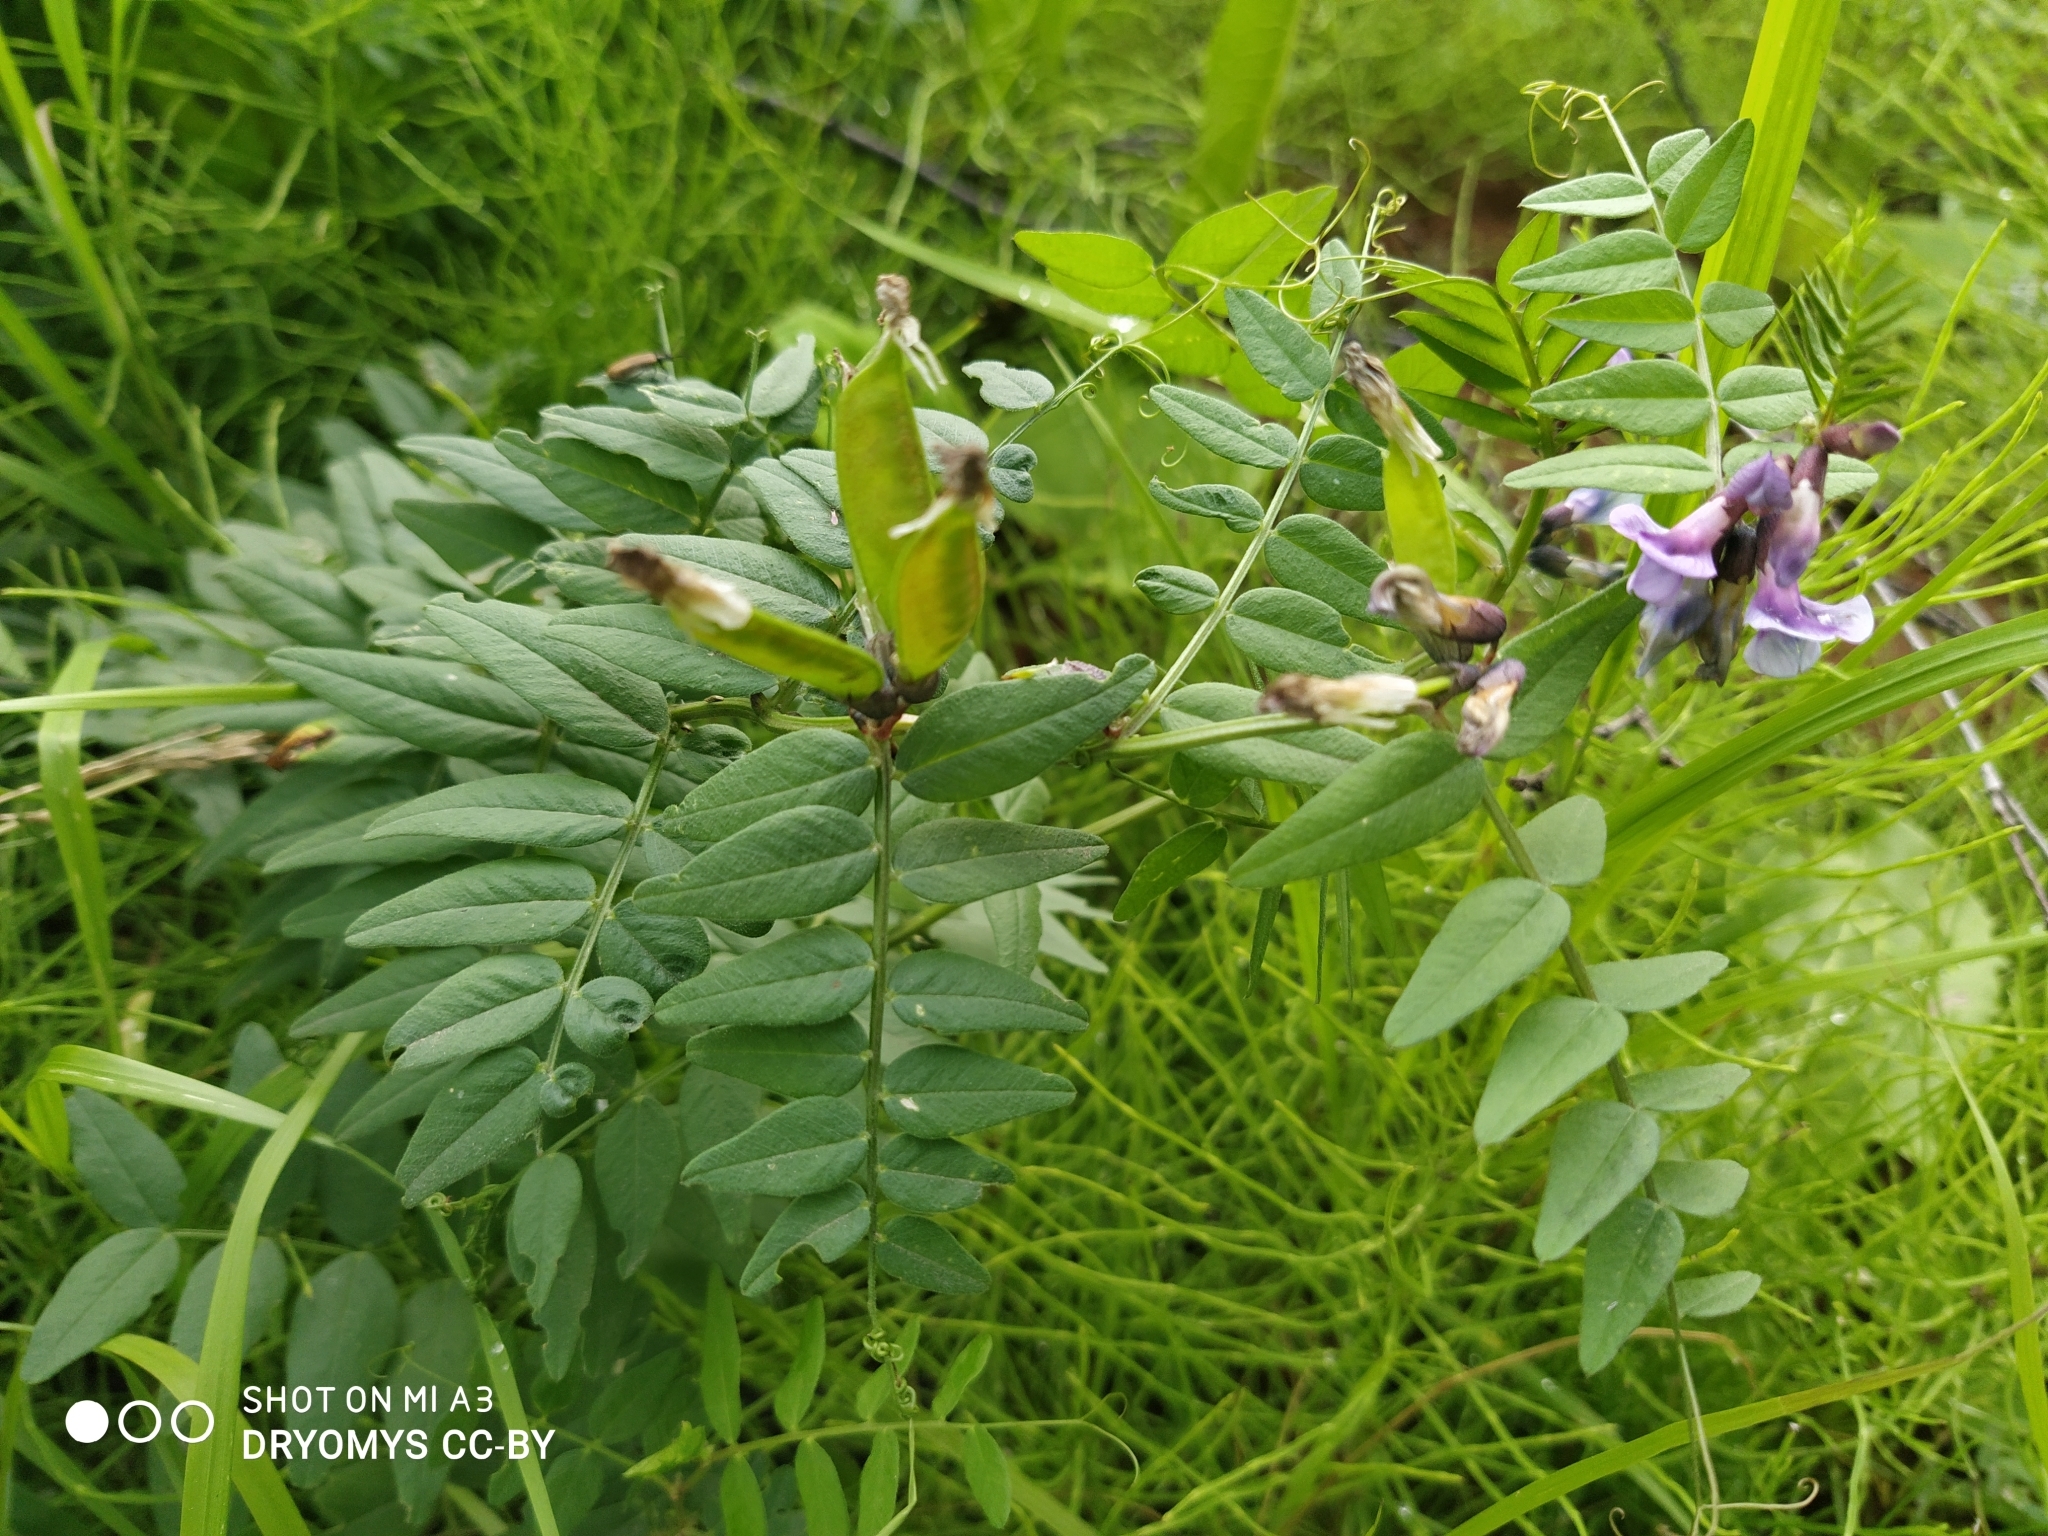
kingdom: Plantae
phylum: Tracheophyta
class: Magnoliopsida
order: Fabales
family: Fabaceae
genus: Vicia
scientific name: Vicia sepium
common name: Bush vetch
